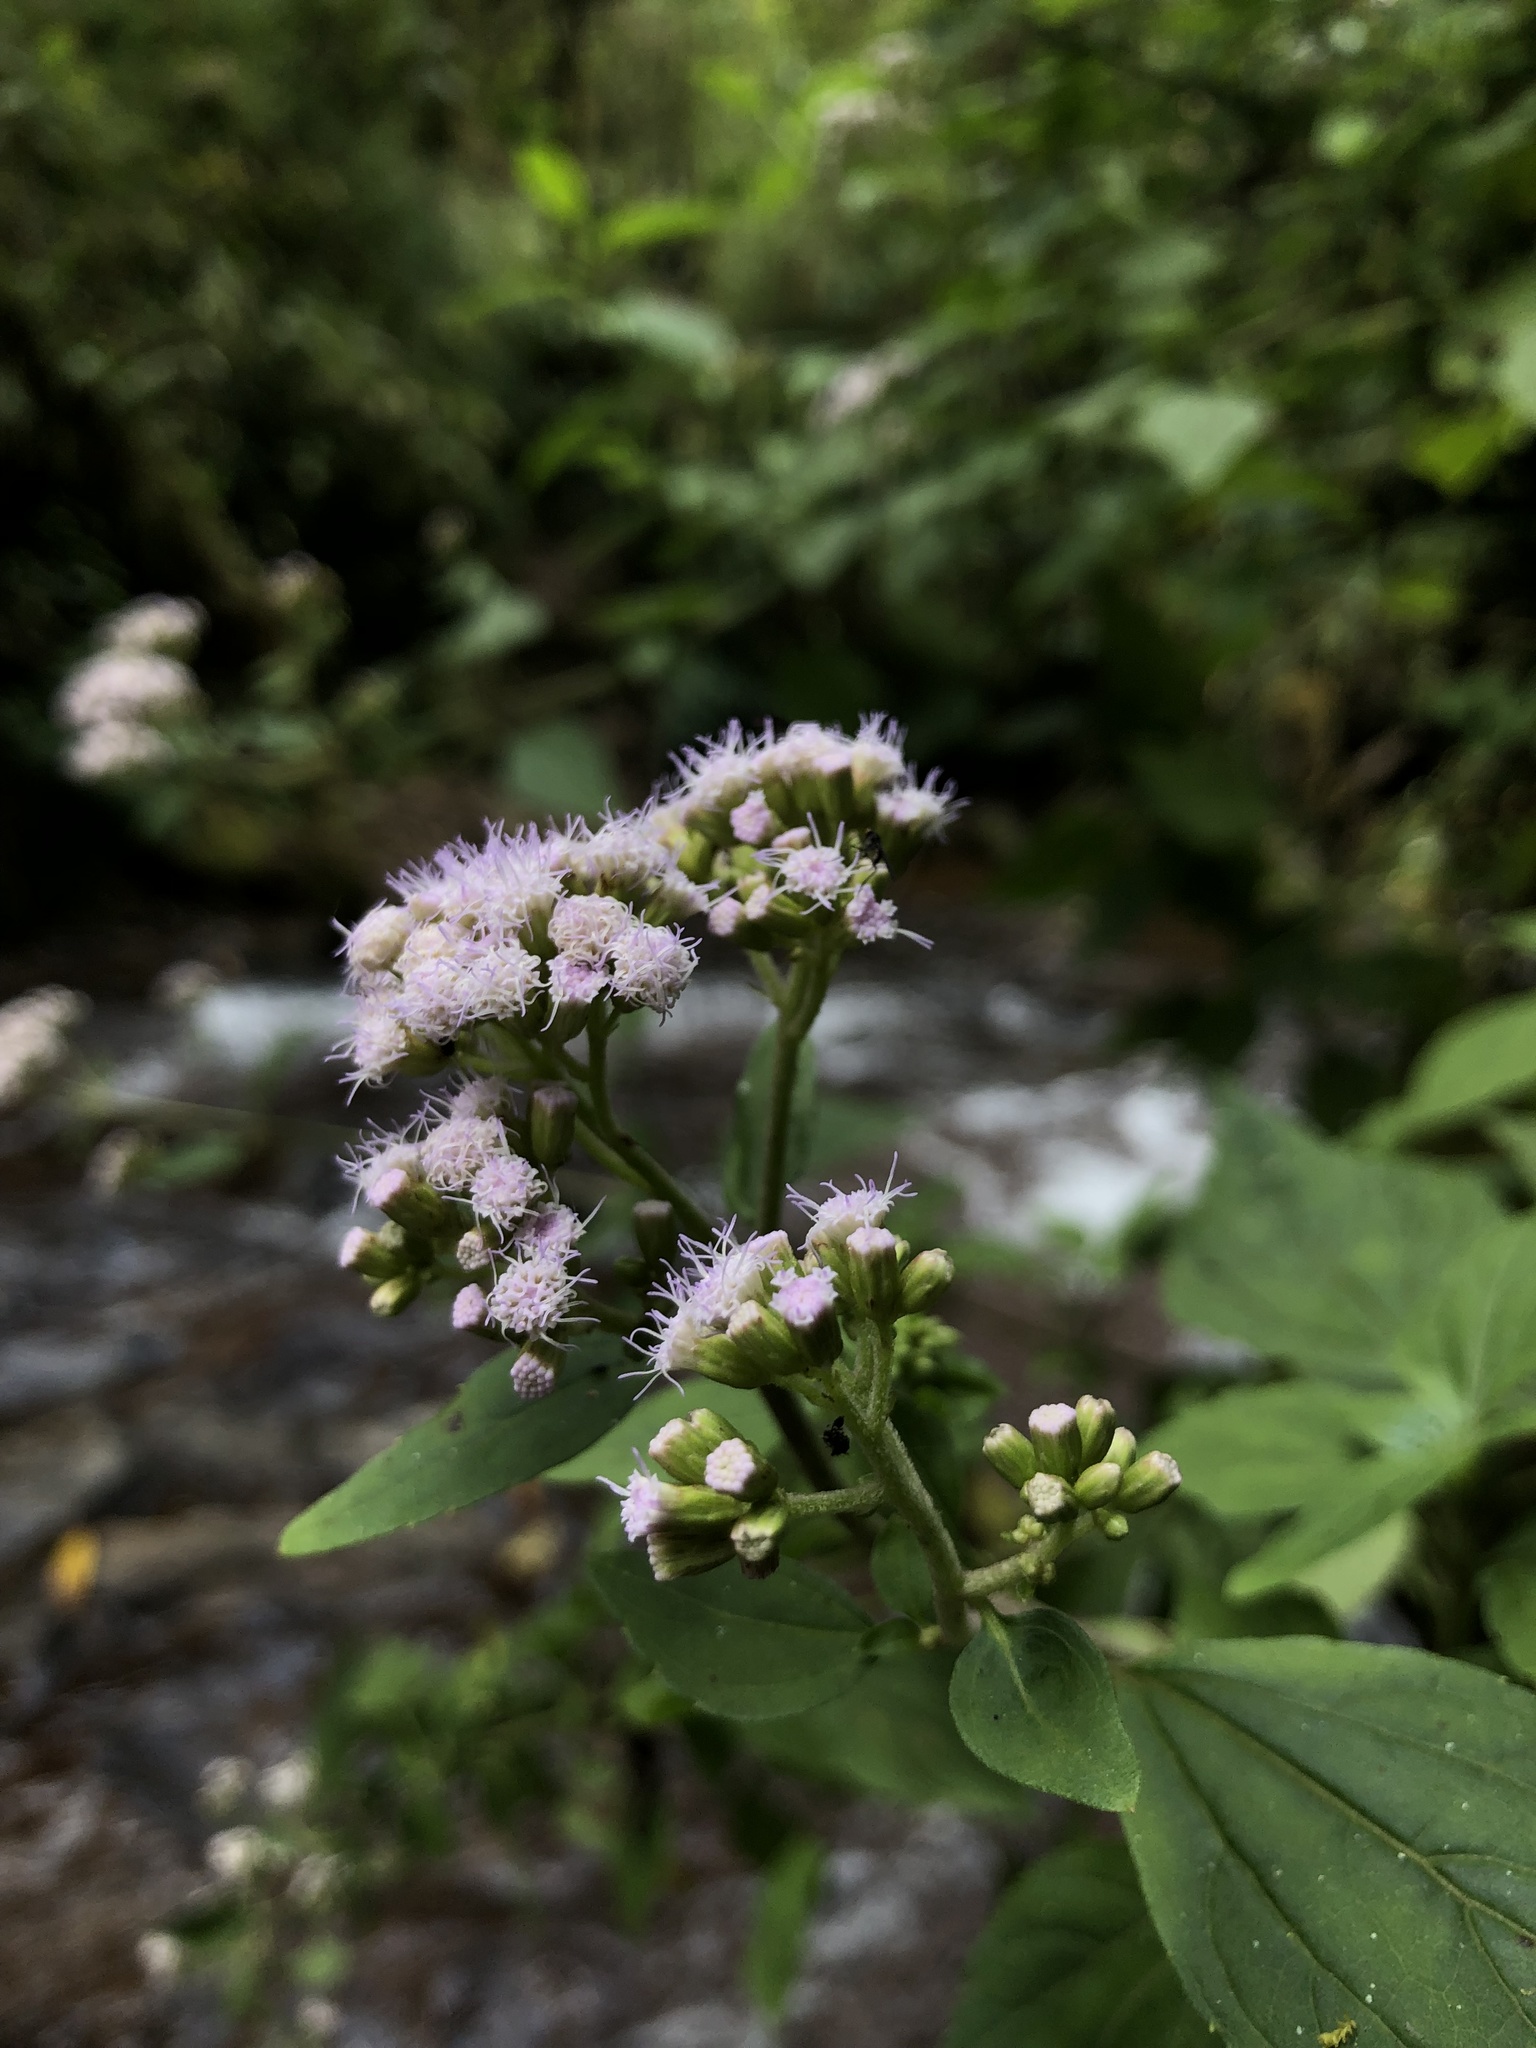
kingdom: Plantae
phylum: Tracheophyta
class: Magnoliopsida
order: Asterales
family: Asteraceae
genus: Fleischmannia
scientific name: Fleischmannia pycnocephala
